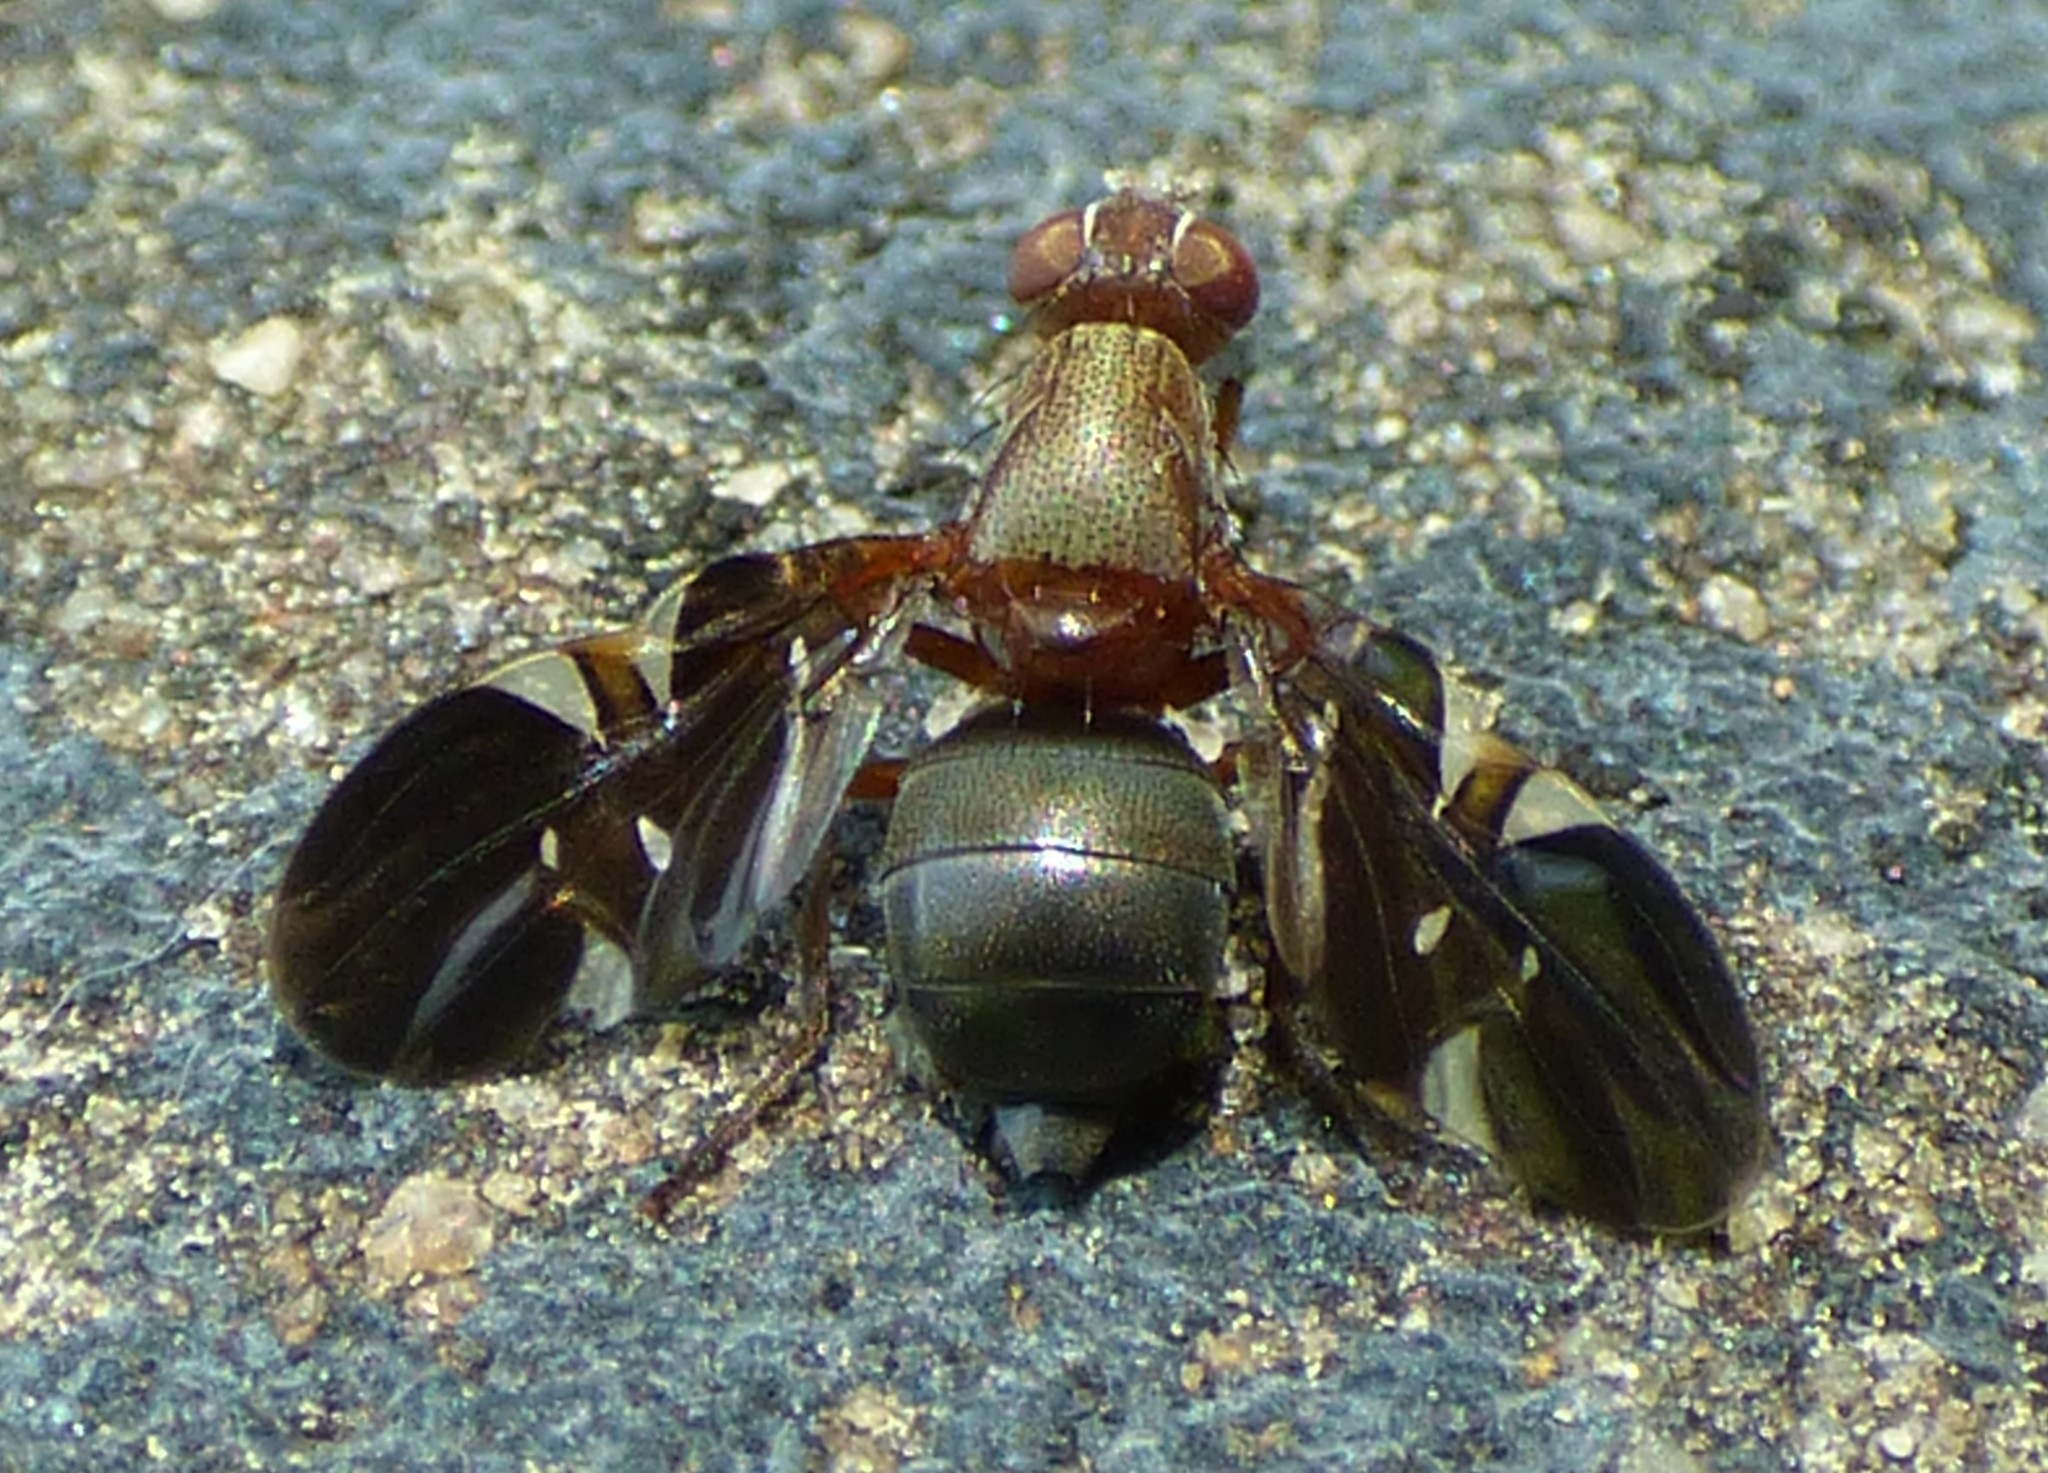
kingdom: Animalia
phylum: Arthropoda
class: Insecta
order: Diptera
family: Ulidiidae
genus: Delphinia
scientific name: Delphinia picta
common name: Common picture-winged fly
